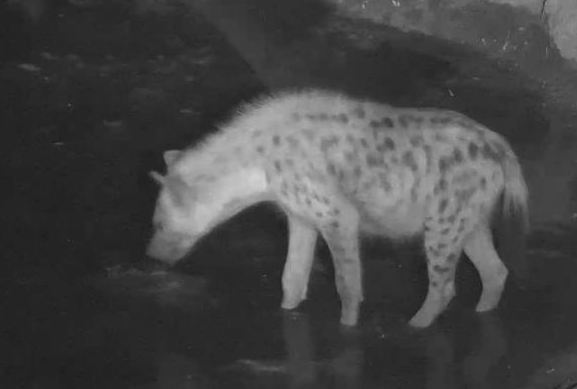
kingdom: Animalia
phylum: Chordata
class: Mammalia
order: Carnivora
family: Hyaenidae
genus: Crocuta
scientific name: Crocuta crocuta
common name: Spotted hyaena
